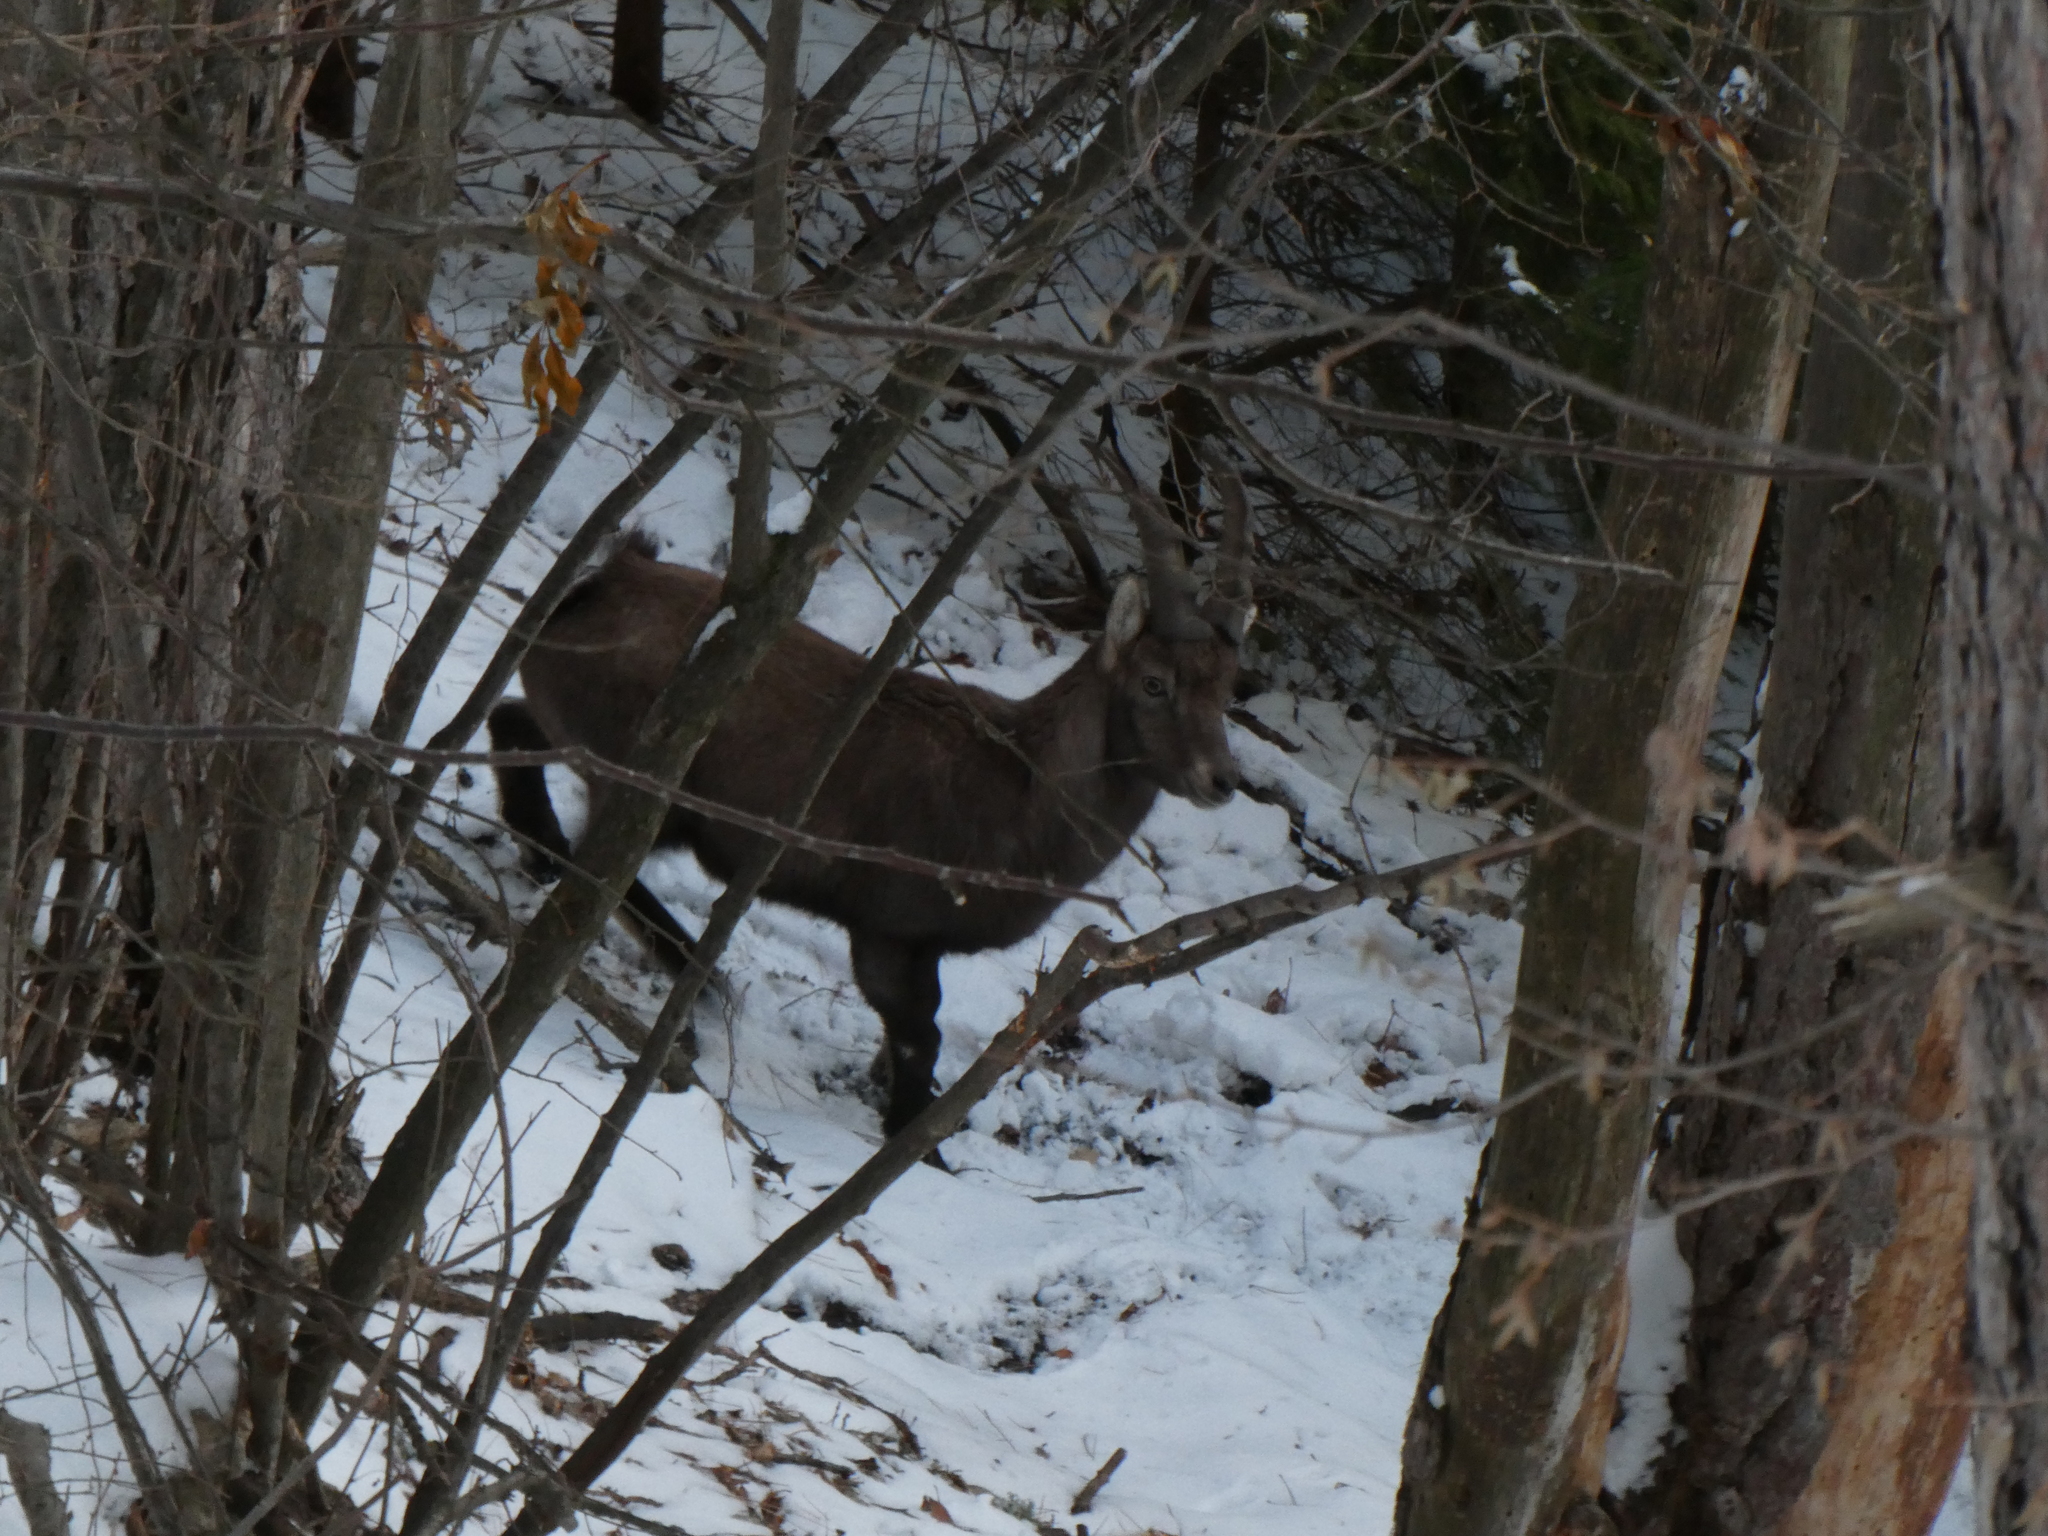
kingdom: Animalia
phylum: Chordata
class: Mammalia
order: Artiodactyla
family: Bovidae
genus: Capra
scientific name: Capra ibex
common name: Alpine ibex
